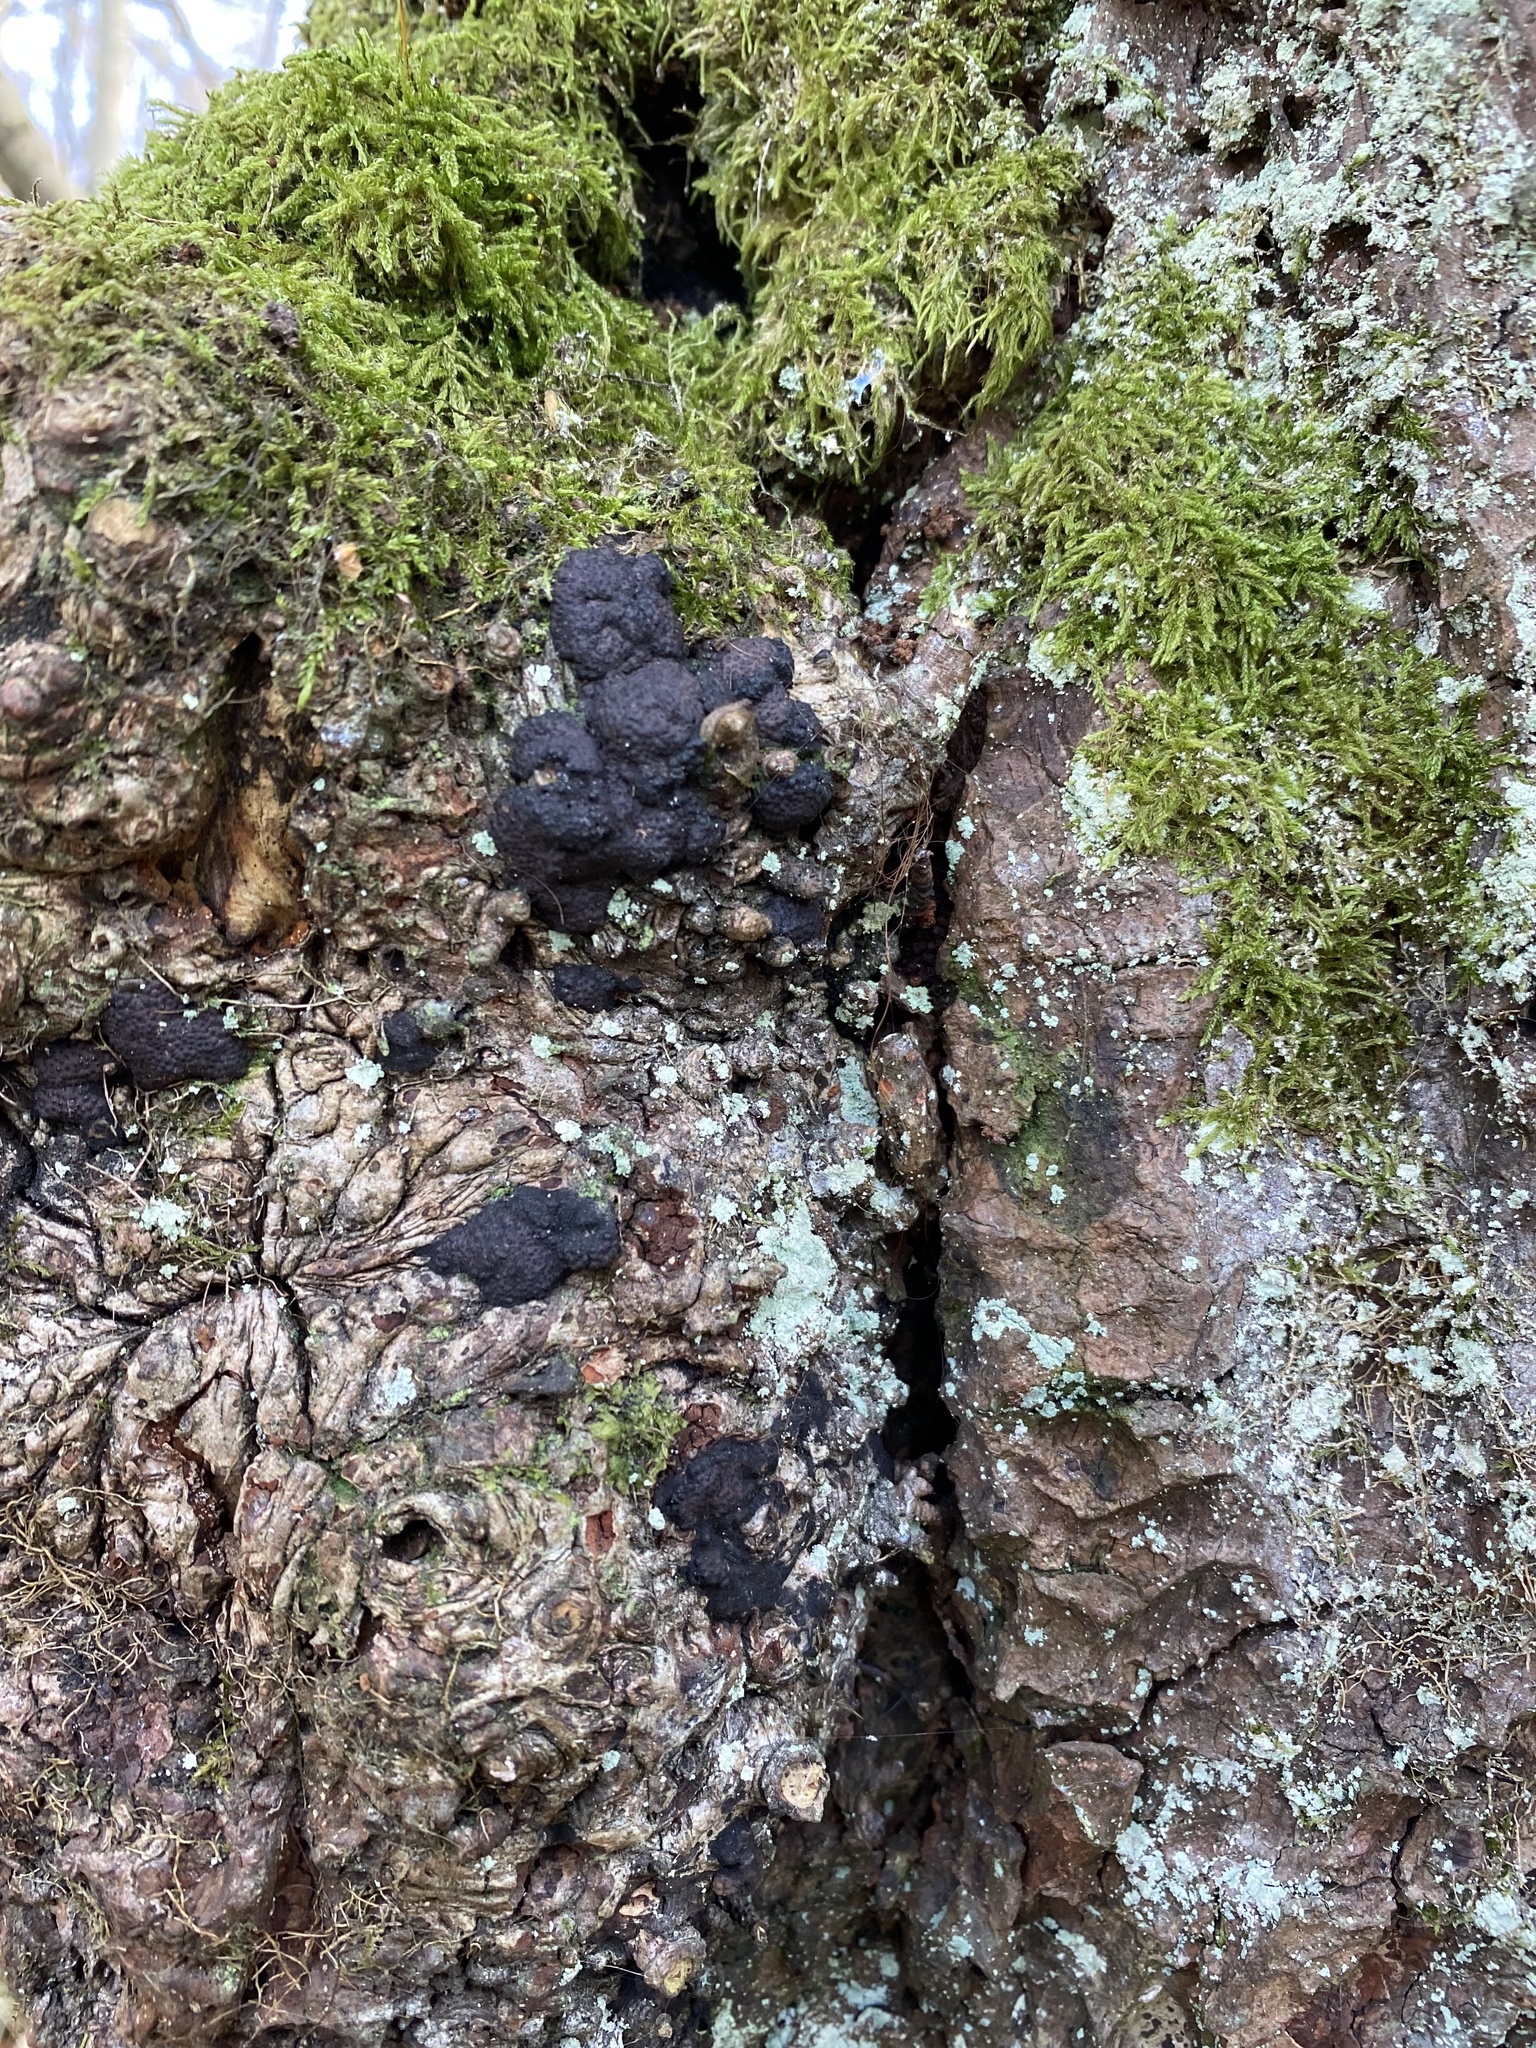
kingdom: Fungi
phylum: Basidiomycota
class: Agaricomycetes
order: Hymenochaetales
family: Hymenochaetaceae
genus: Xanthoporia
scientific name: Xanthoporia radiata
